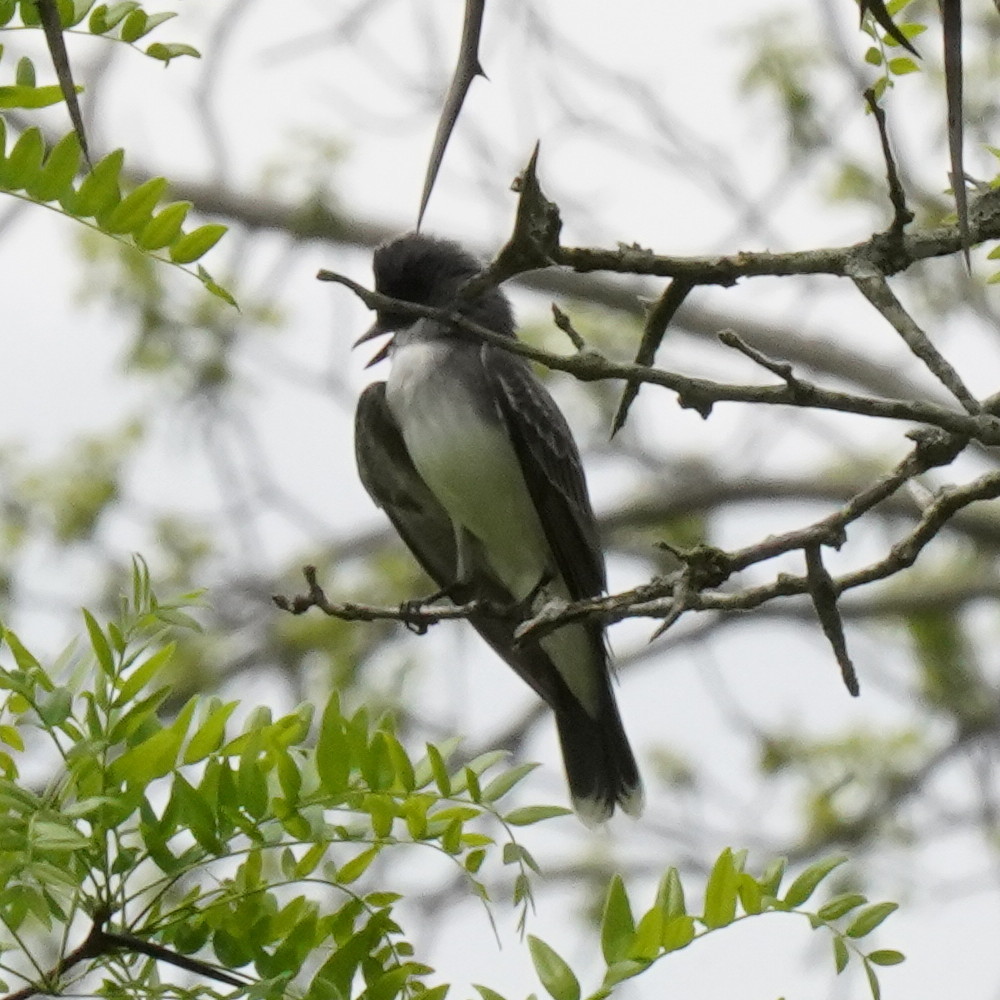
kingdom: Animalia
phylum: Chordata
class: Aves
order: Passeriformes
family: Tyrannidae
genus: Tyrannus
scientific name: Tyrannus tyrannus
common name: Eastern kingbird
